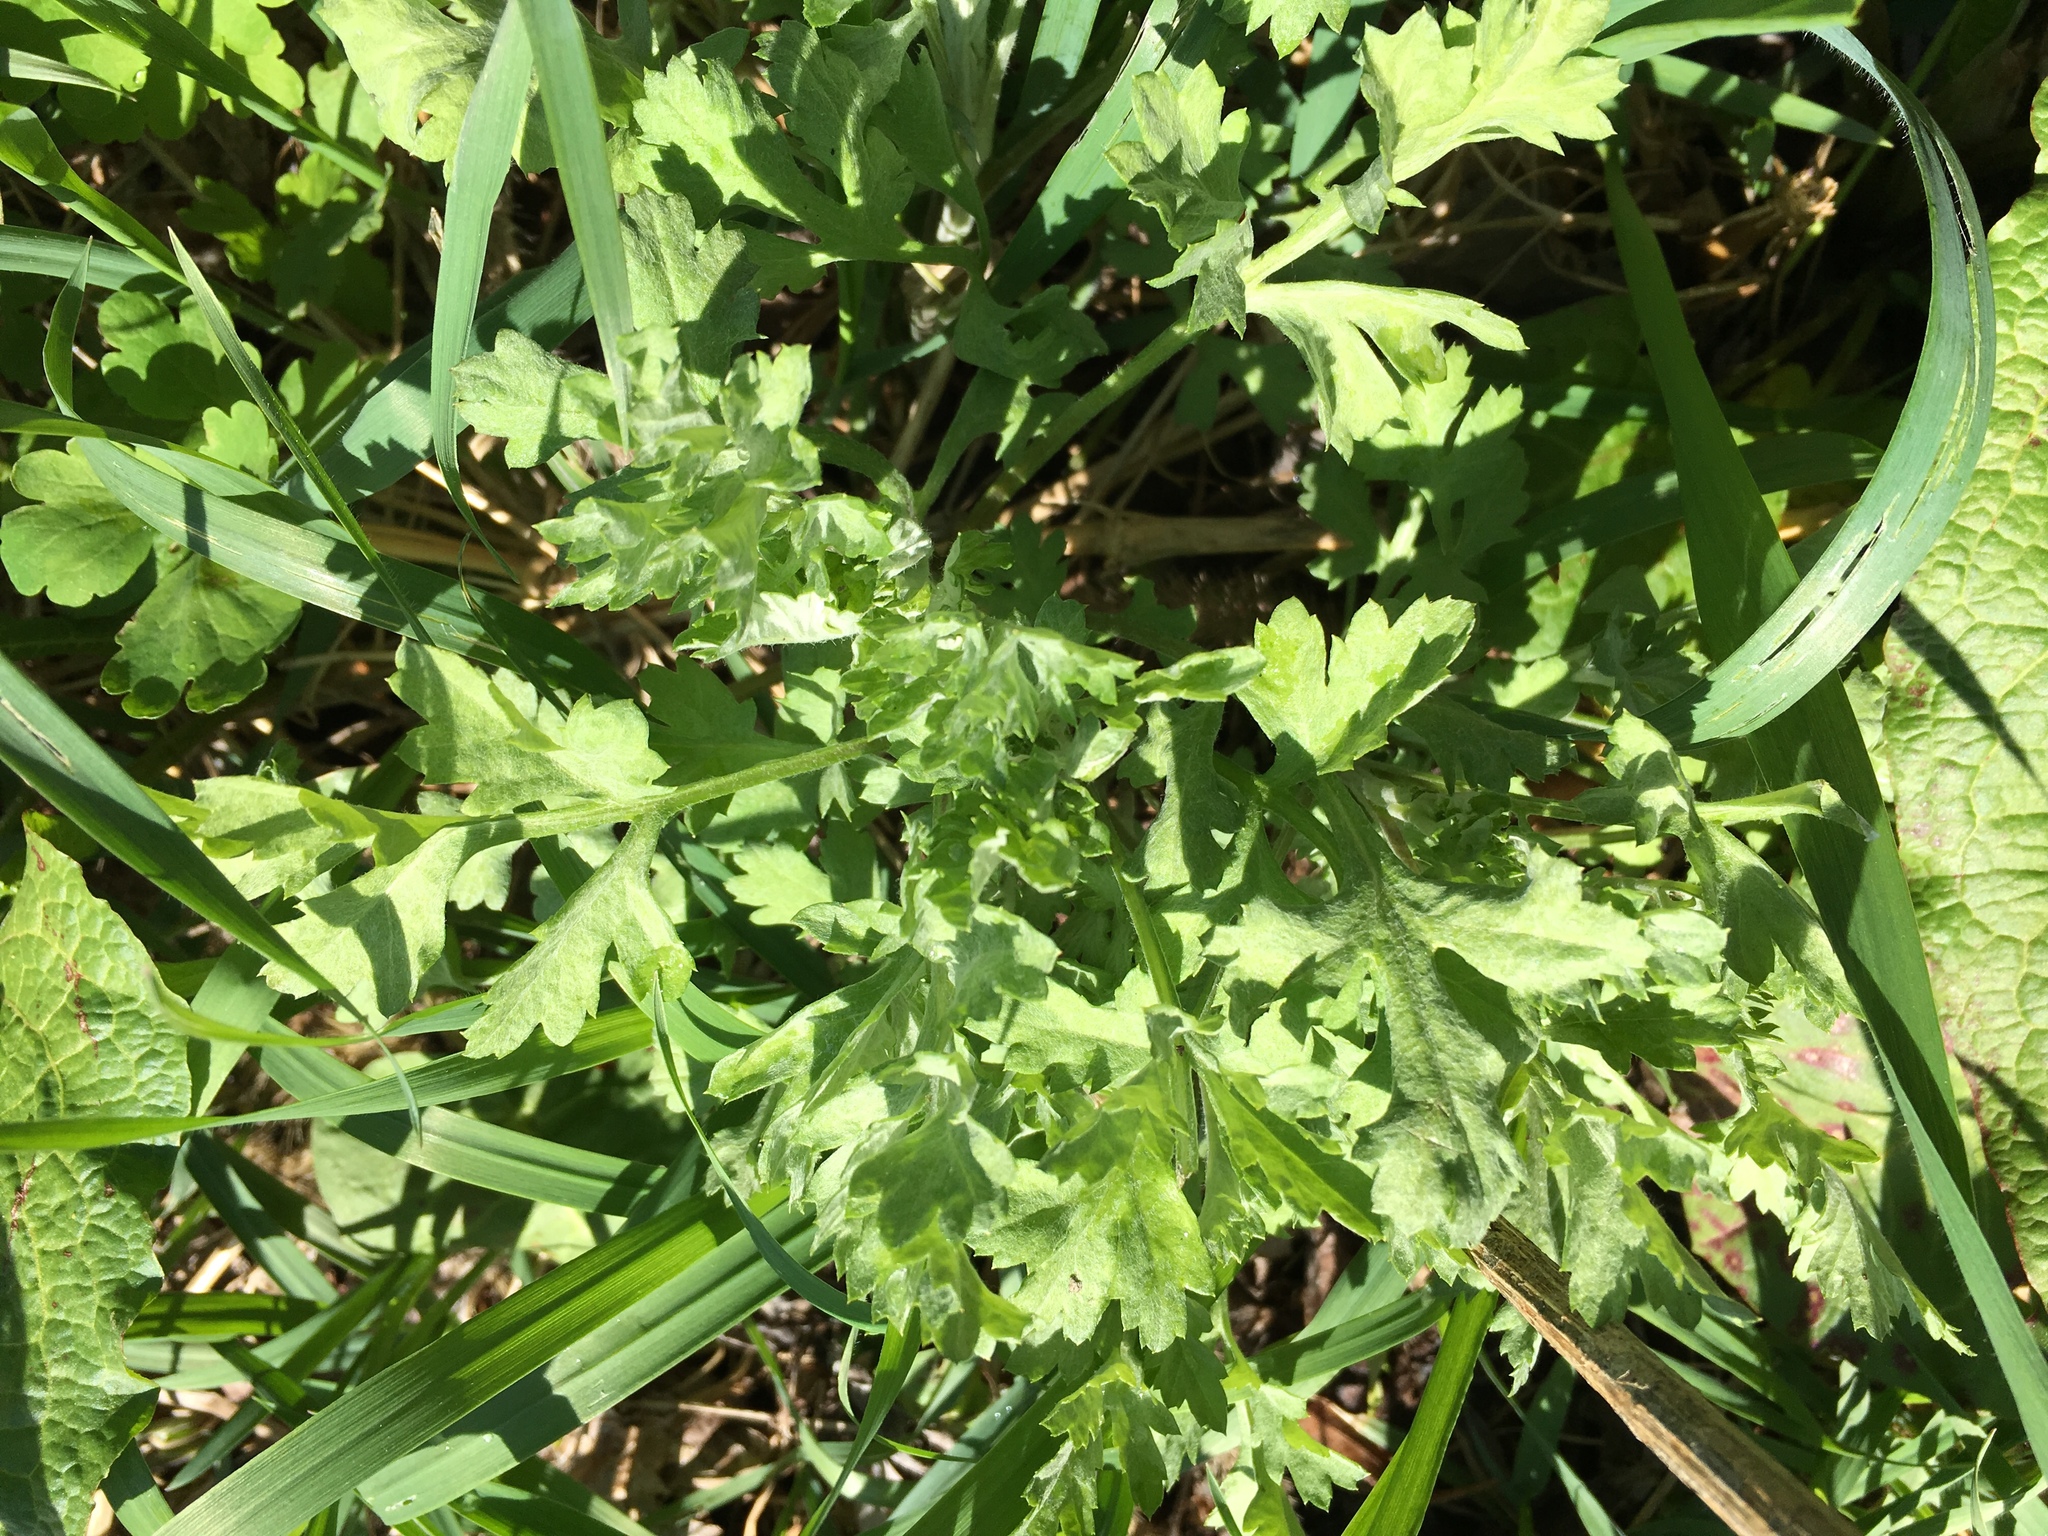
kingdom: Plantae
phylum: Tracheophyta
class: Magnoliopsida
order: Asterales
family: Asteraceae
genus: Artemisia
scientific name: Artemisia vulgaris
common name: Mugwort
